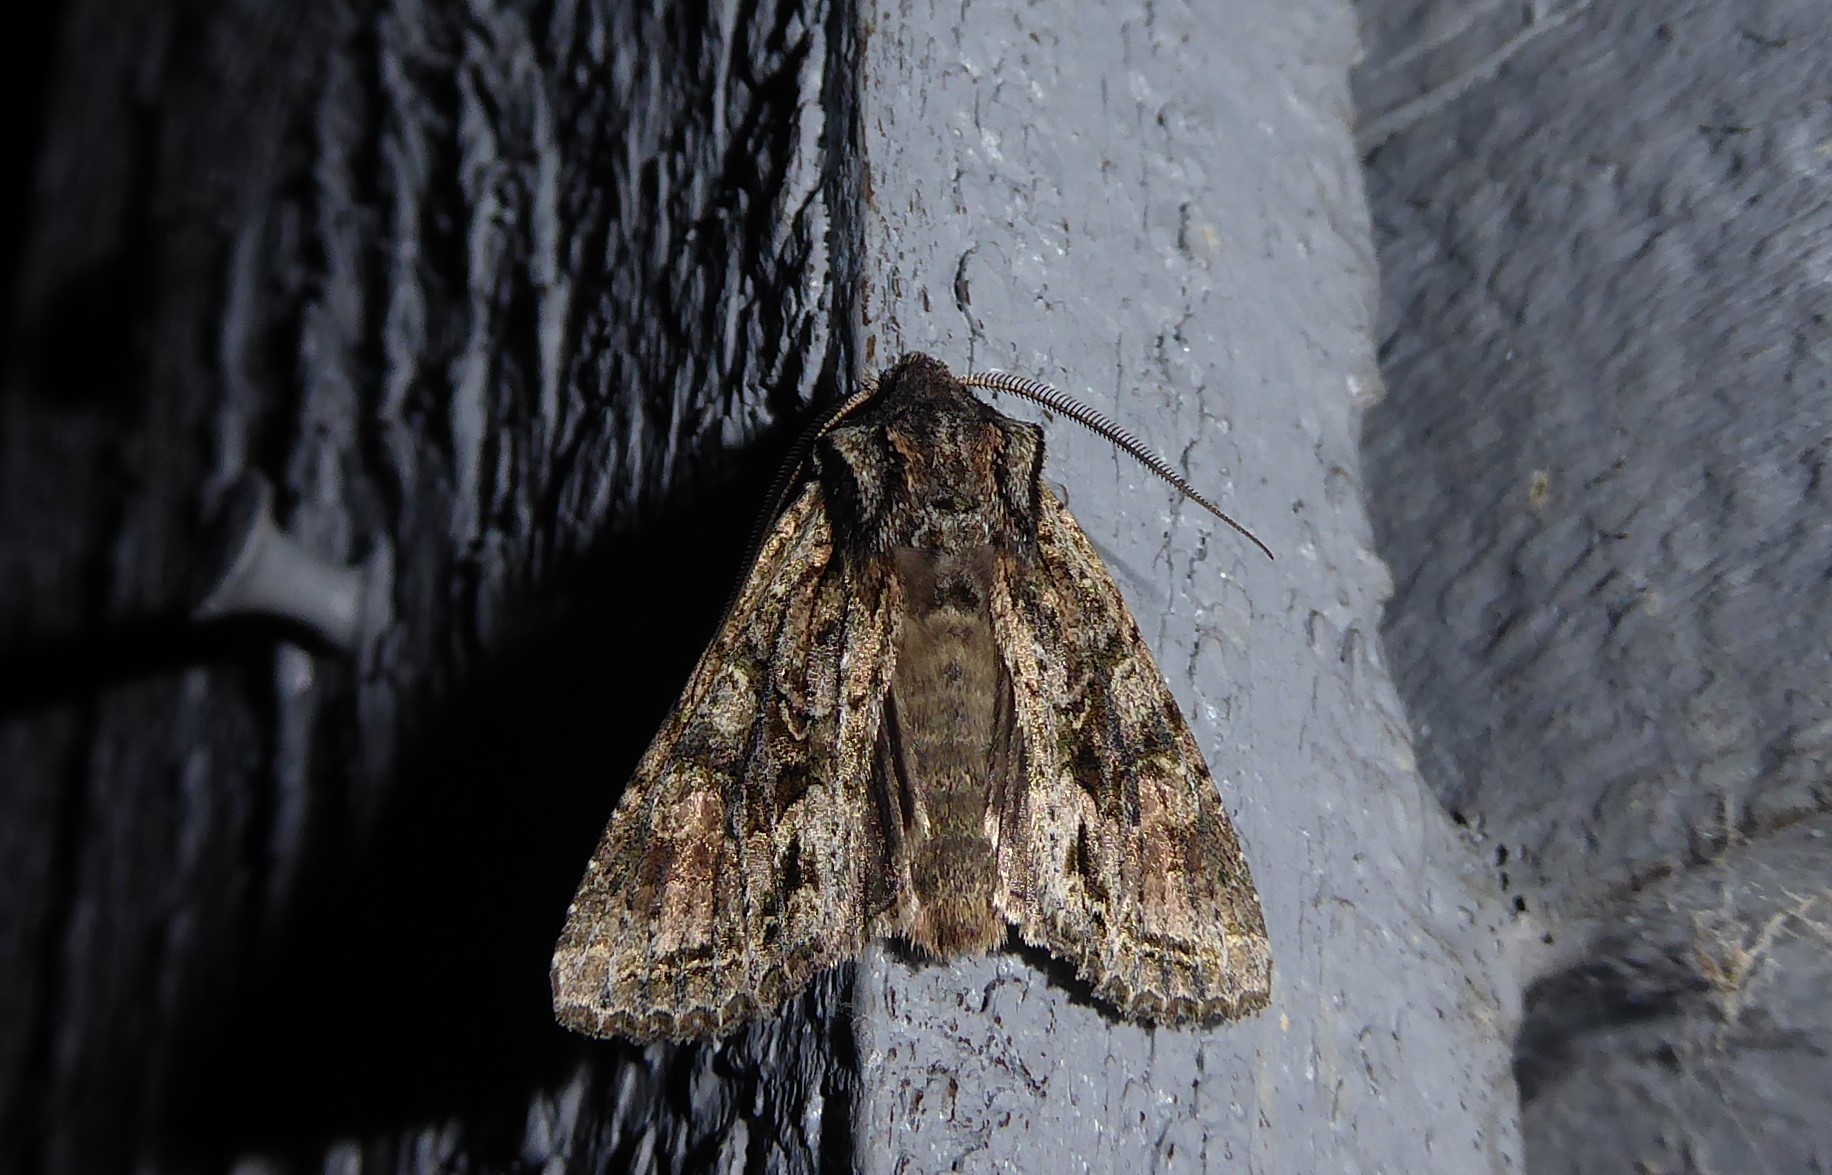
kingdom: Animalia
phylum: Arthropoda
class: Insecta
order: Lepidoptera
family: Noctuidae
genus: Ichneutica
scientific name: Ichneutica mutans
